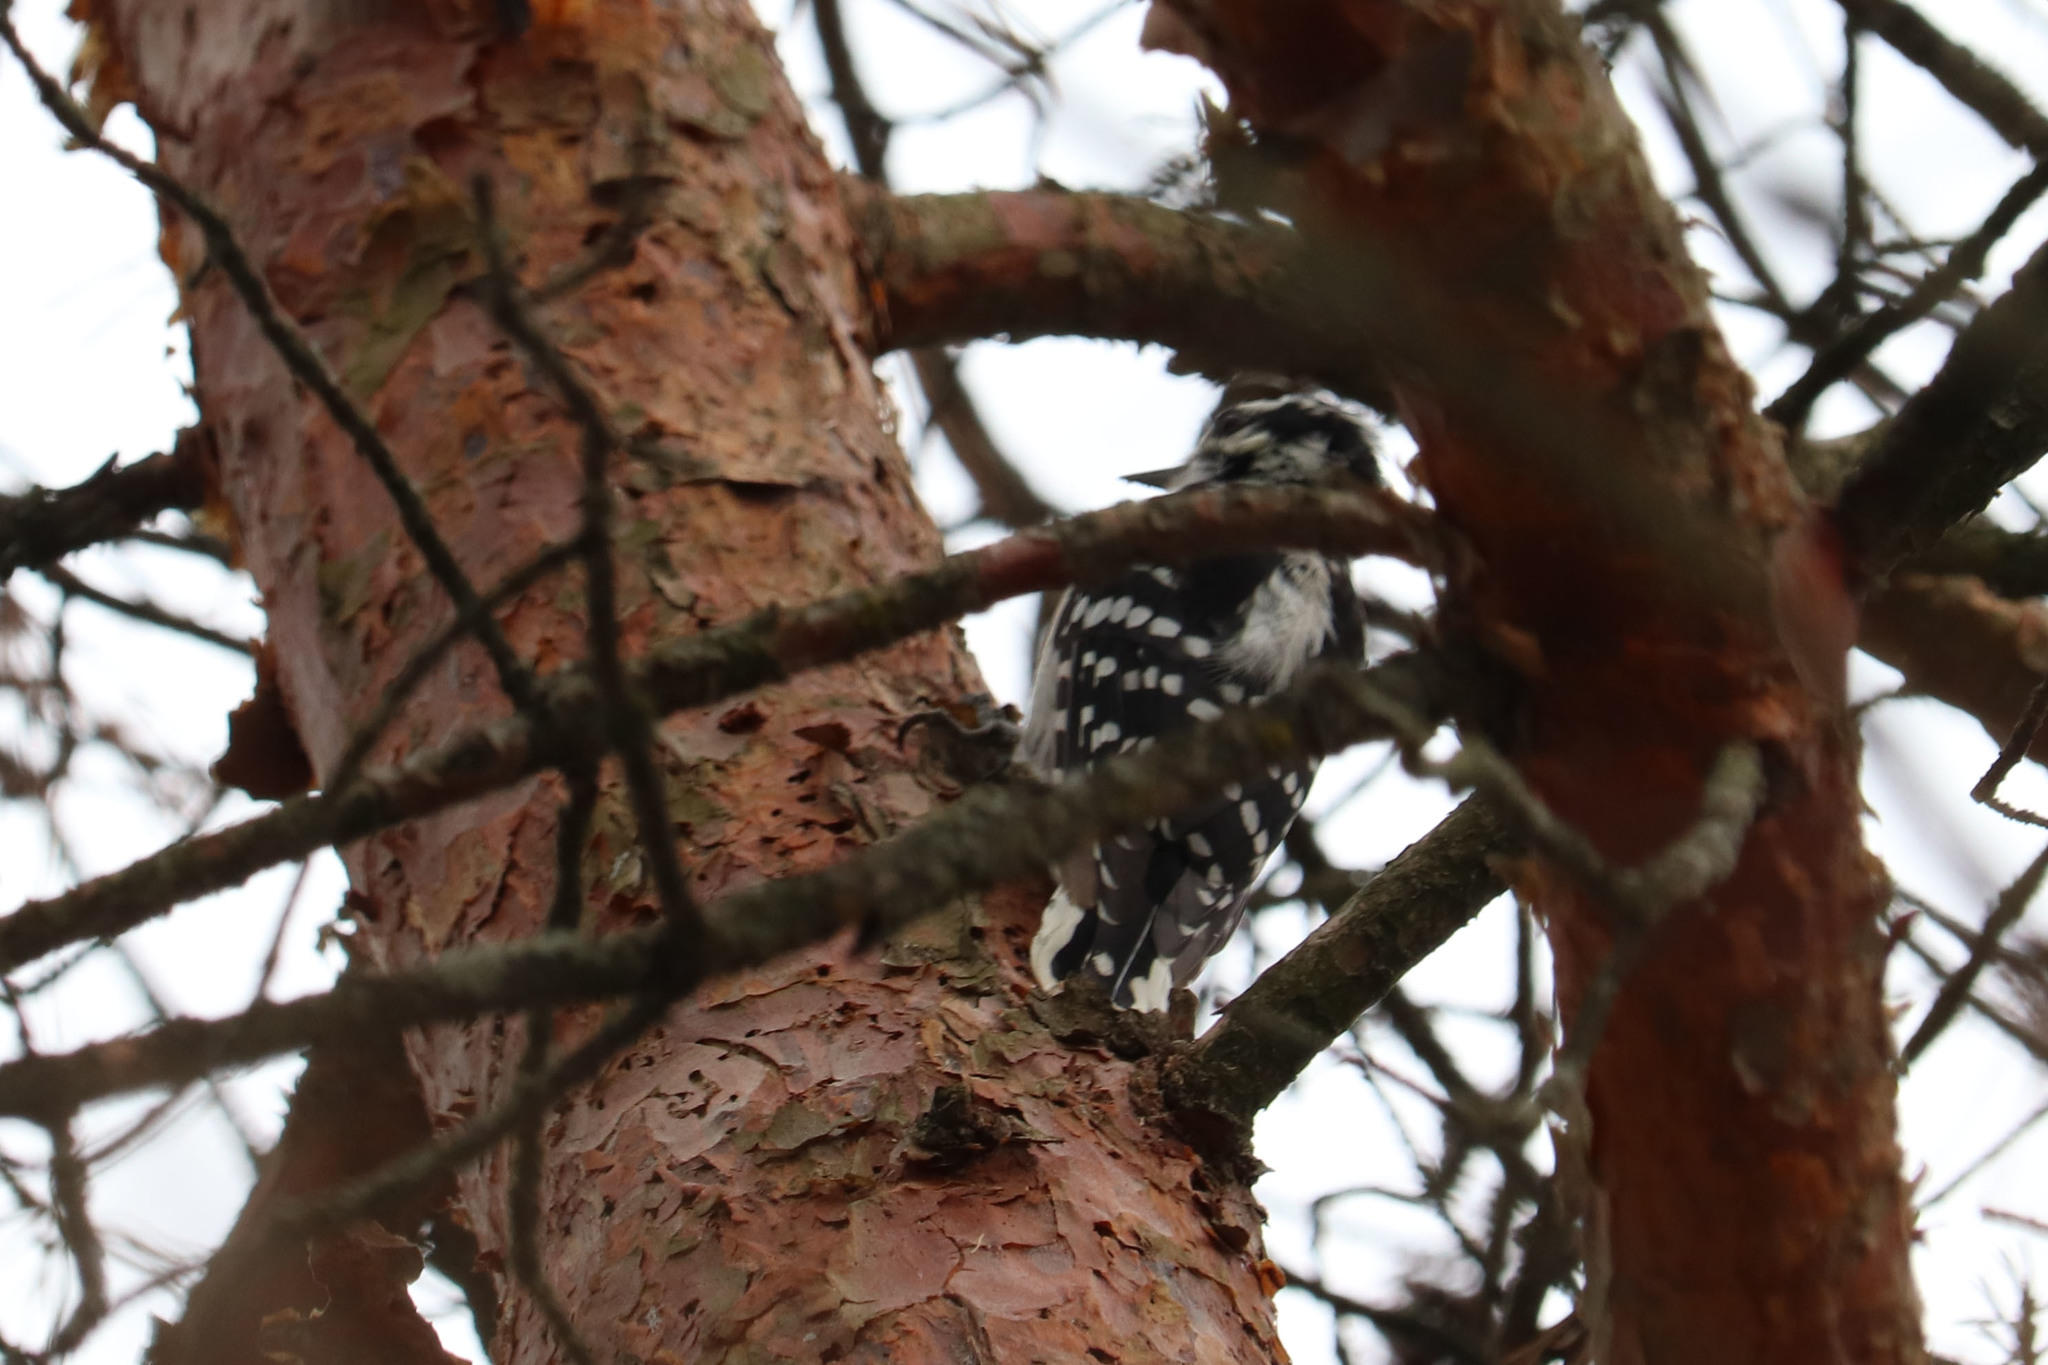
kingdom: Animalia
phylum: Chordata
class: Aves
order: Piciformes
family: Picidae
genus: Dryobates
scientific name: Dryobates pubescens
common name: Downy woodpecker
